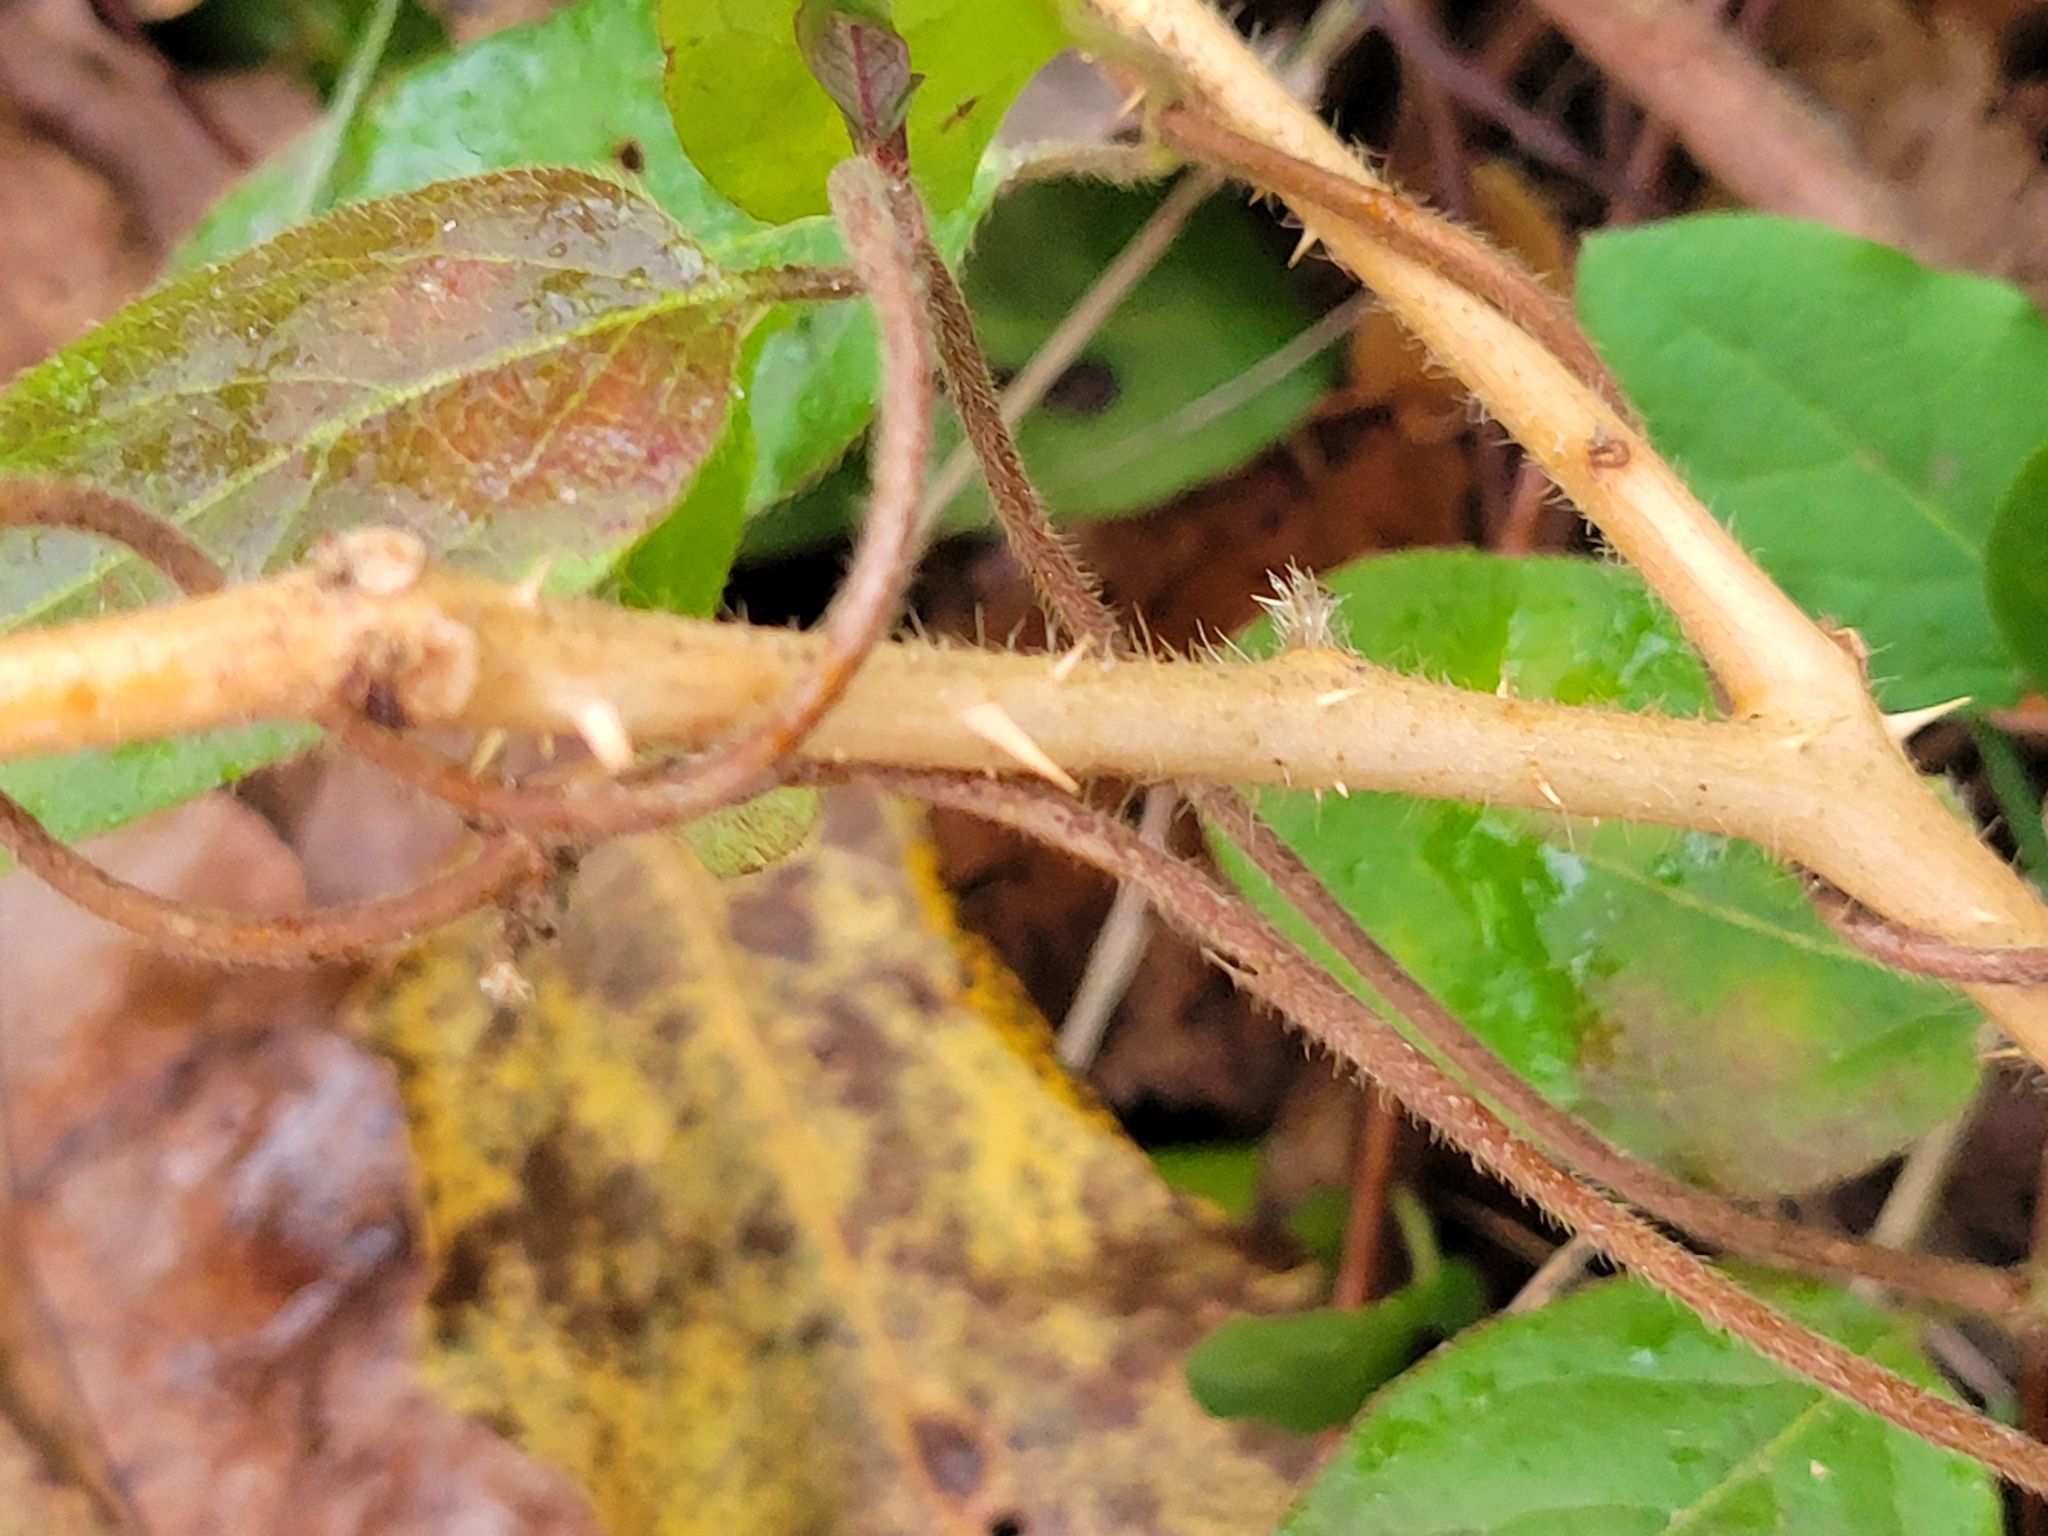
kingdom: Plantae
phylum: Tracheophyta
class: Magnoliopsida
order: Solanales
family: Solanaceae
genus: Solanum
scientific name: Solanum carolinense
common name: Horse-nettle
